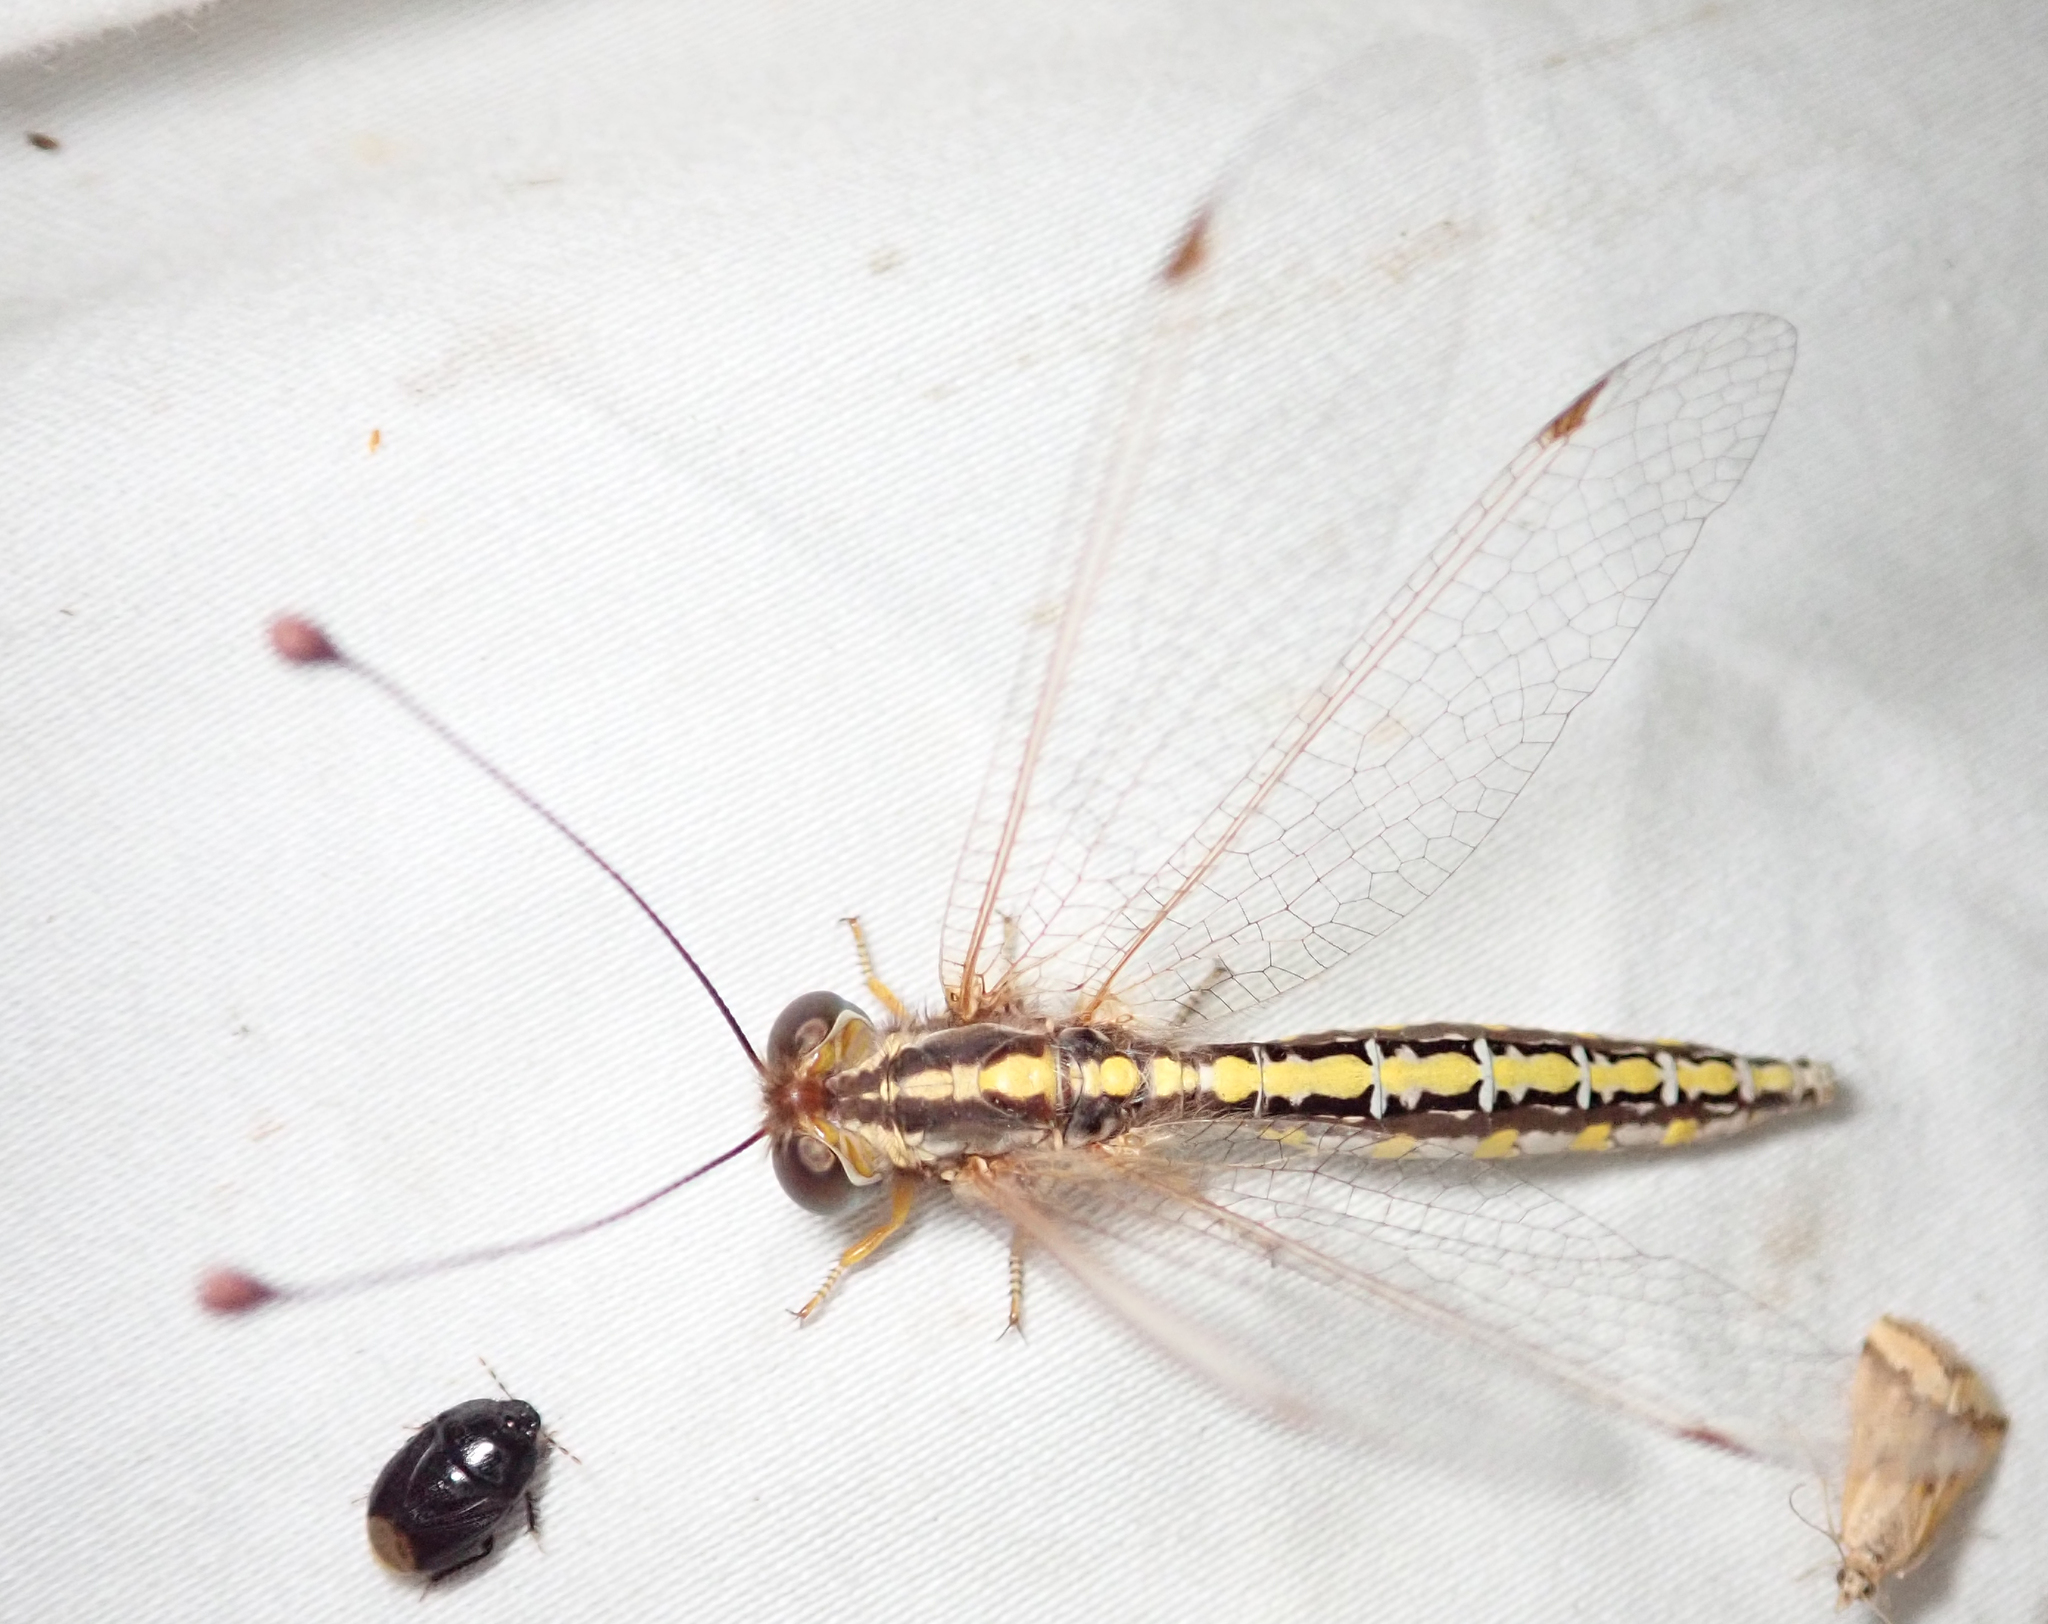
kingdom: Animalia
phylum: Arthropoda
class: Insecta
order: Neuroptera
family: Ascalaphidae
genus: Ascalaphus
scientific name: Ascalaphus festivus
